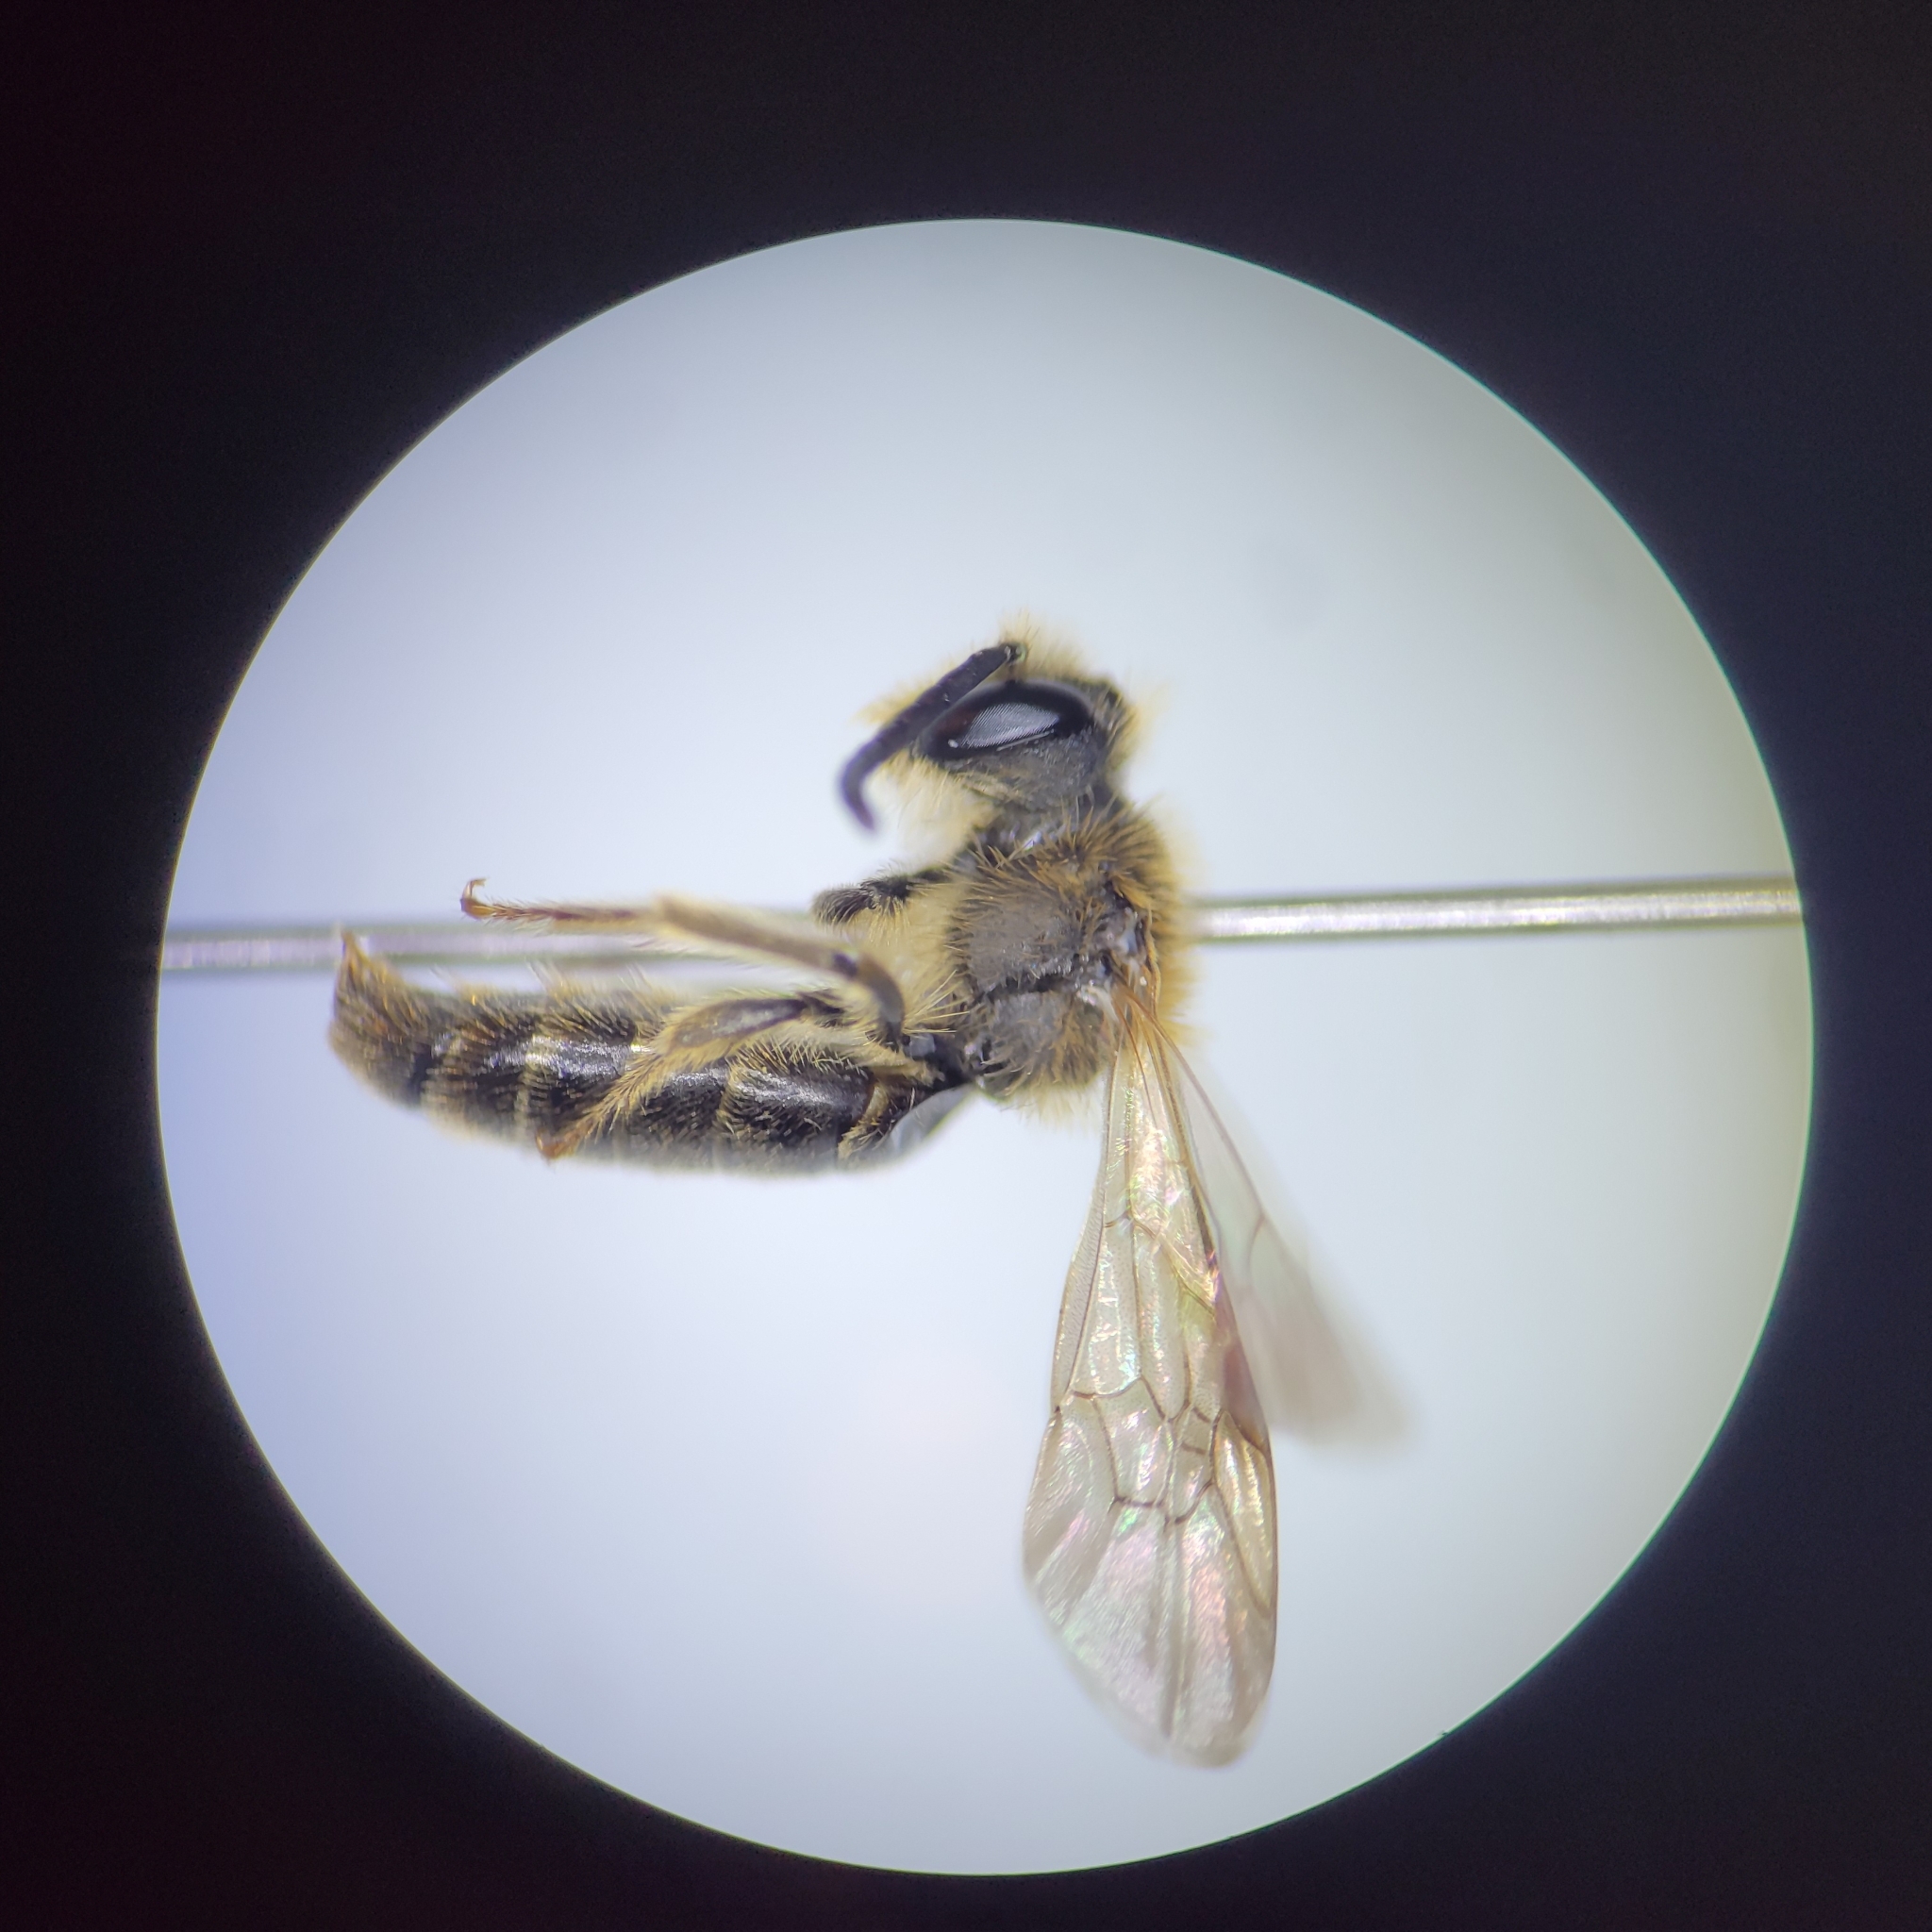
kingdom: Animalia
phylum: Arthropoda
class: Insecta
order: Hymenoptera
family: Andrenidae
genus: Andrena
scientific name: Andrena miserabilis
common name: Miserable mining bee
